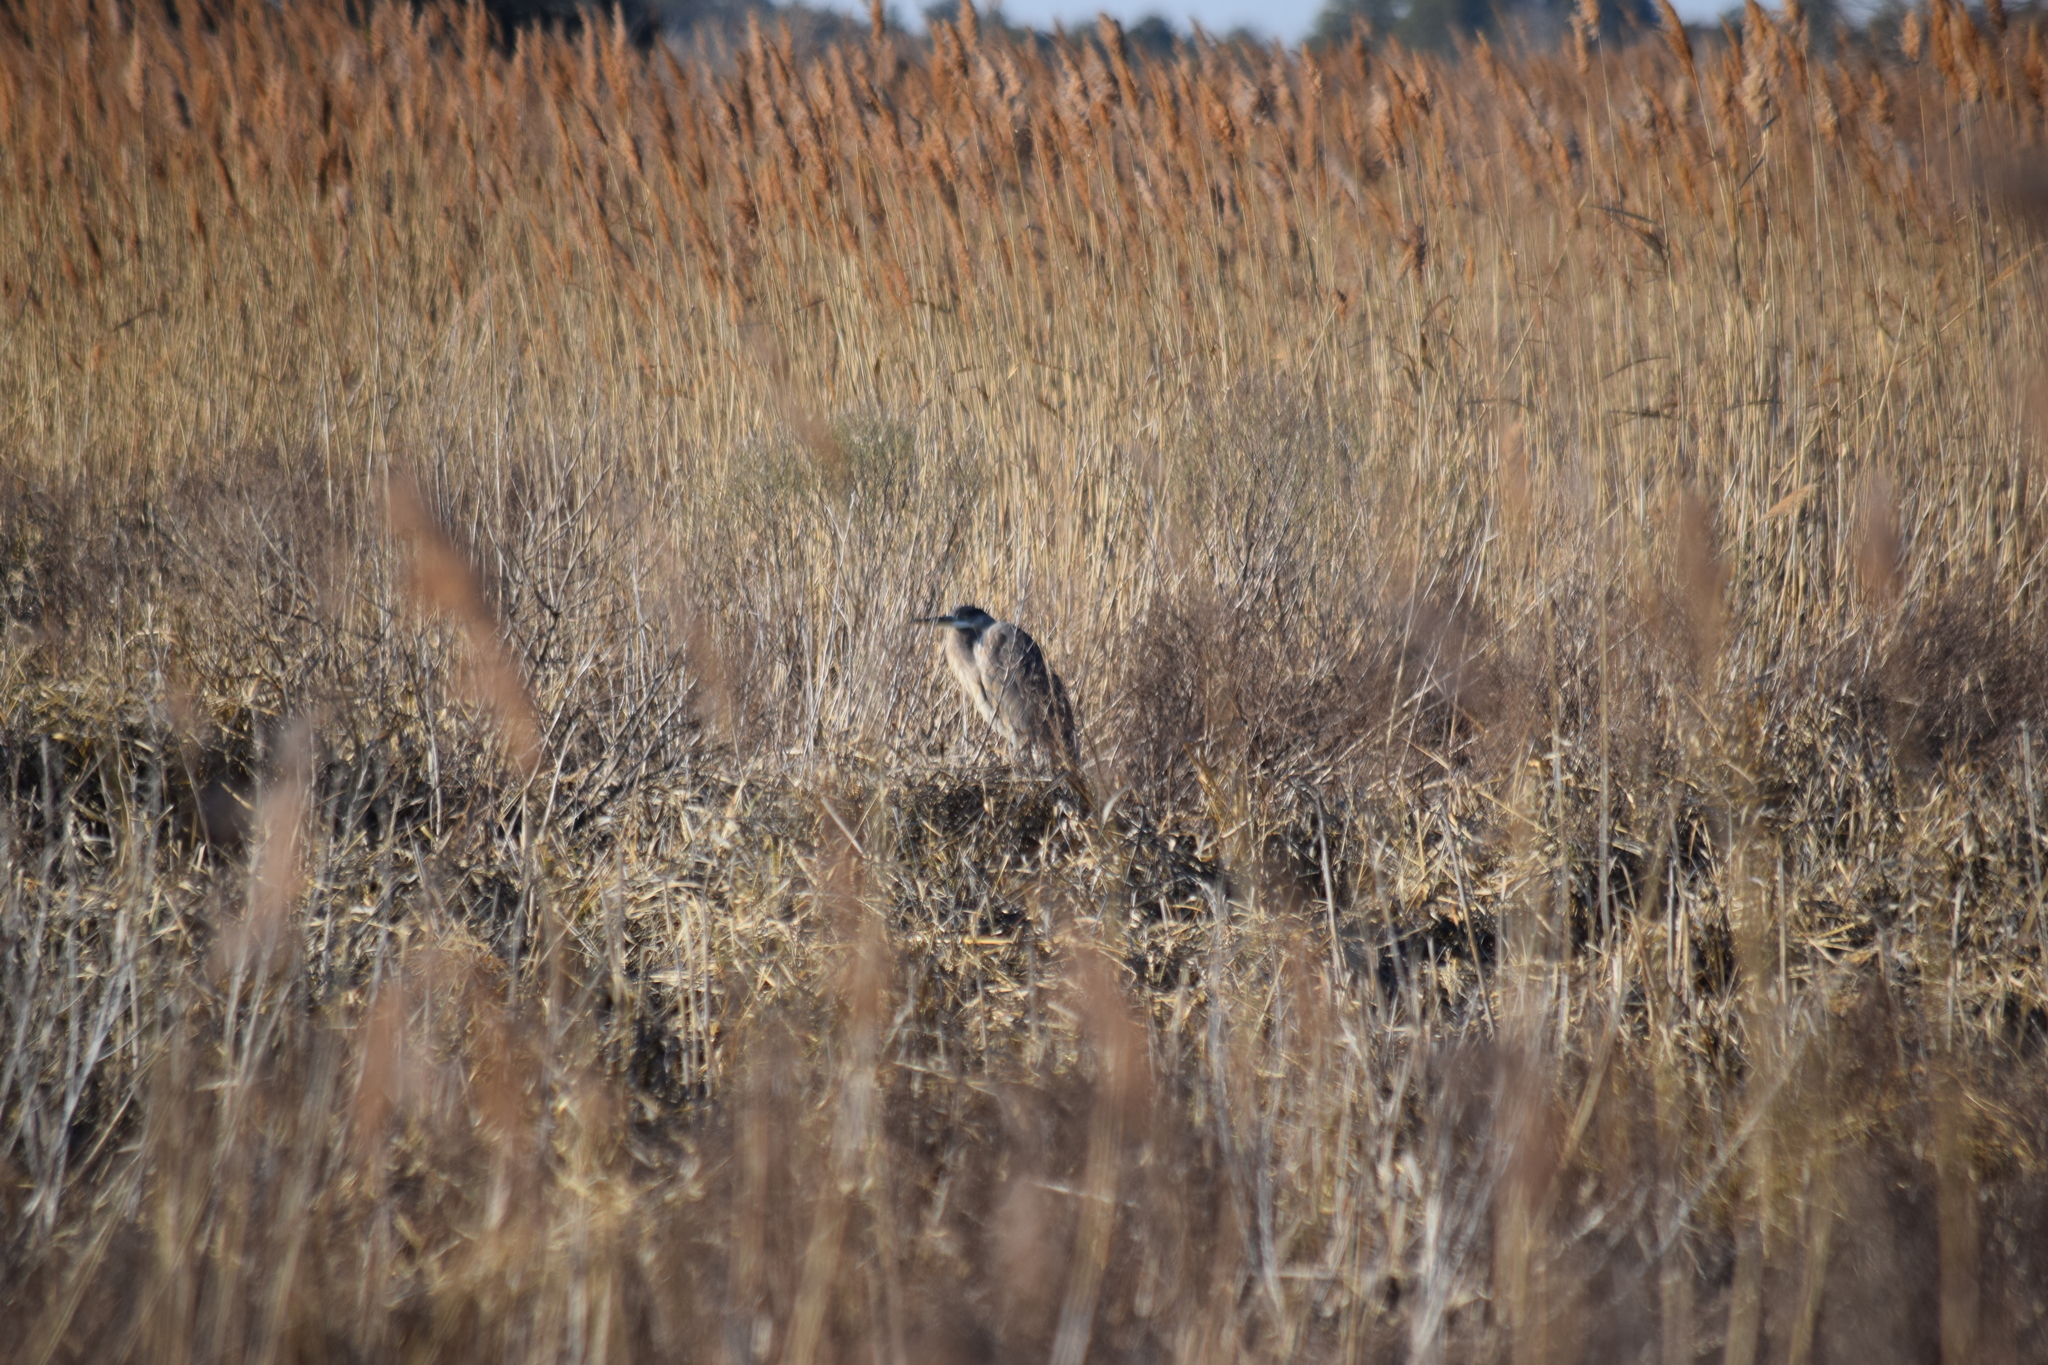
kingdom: Animalia
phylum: Chordata
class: Aves
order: Pelecaniformes
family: Ardeidae
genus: Ardea
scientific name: Ardea herodias
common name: Great blue heron
